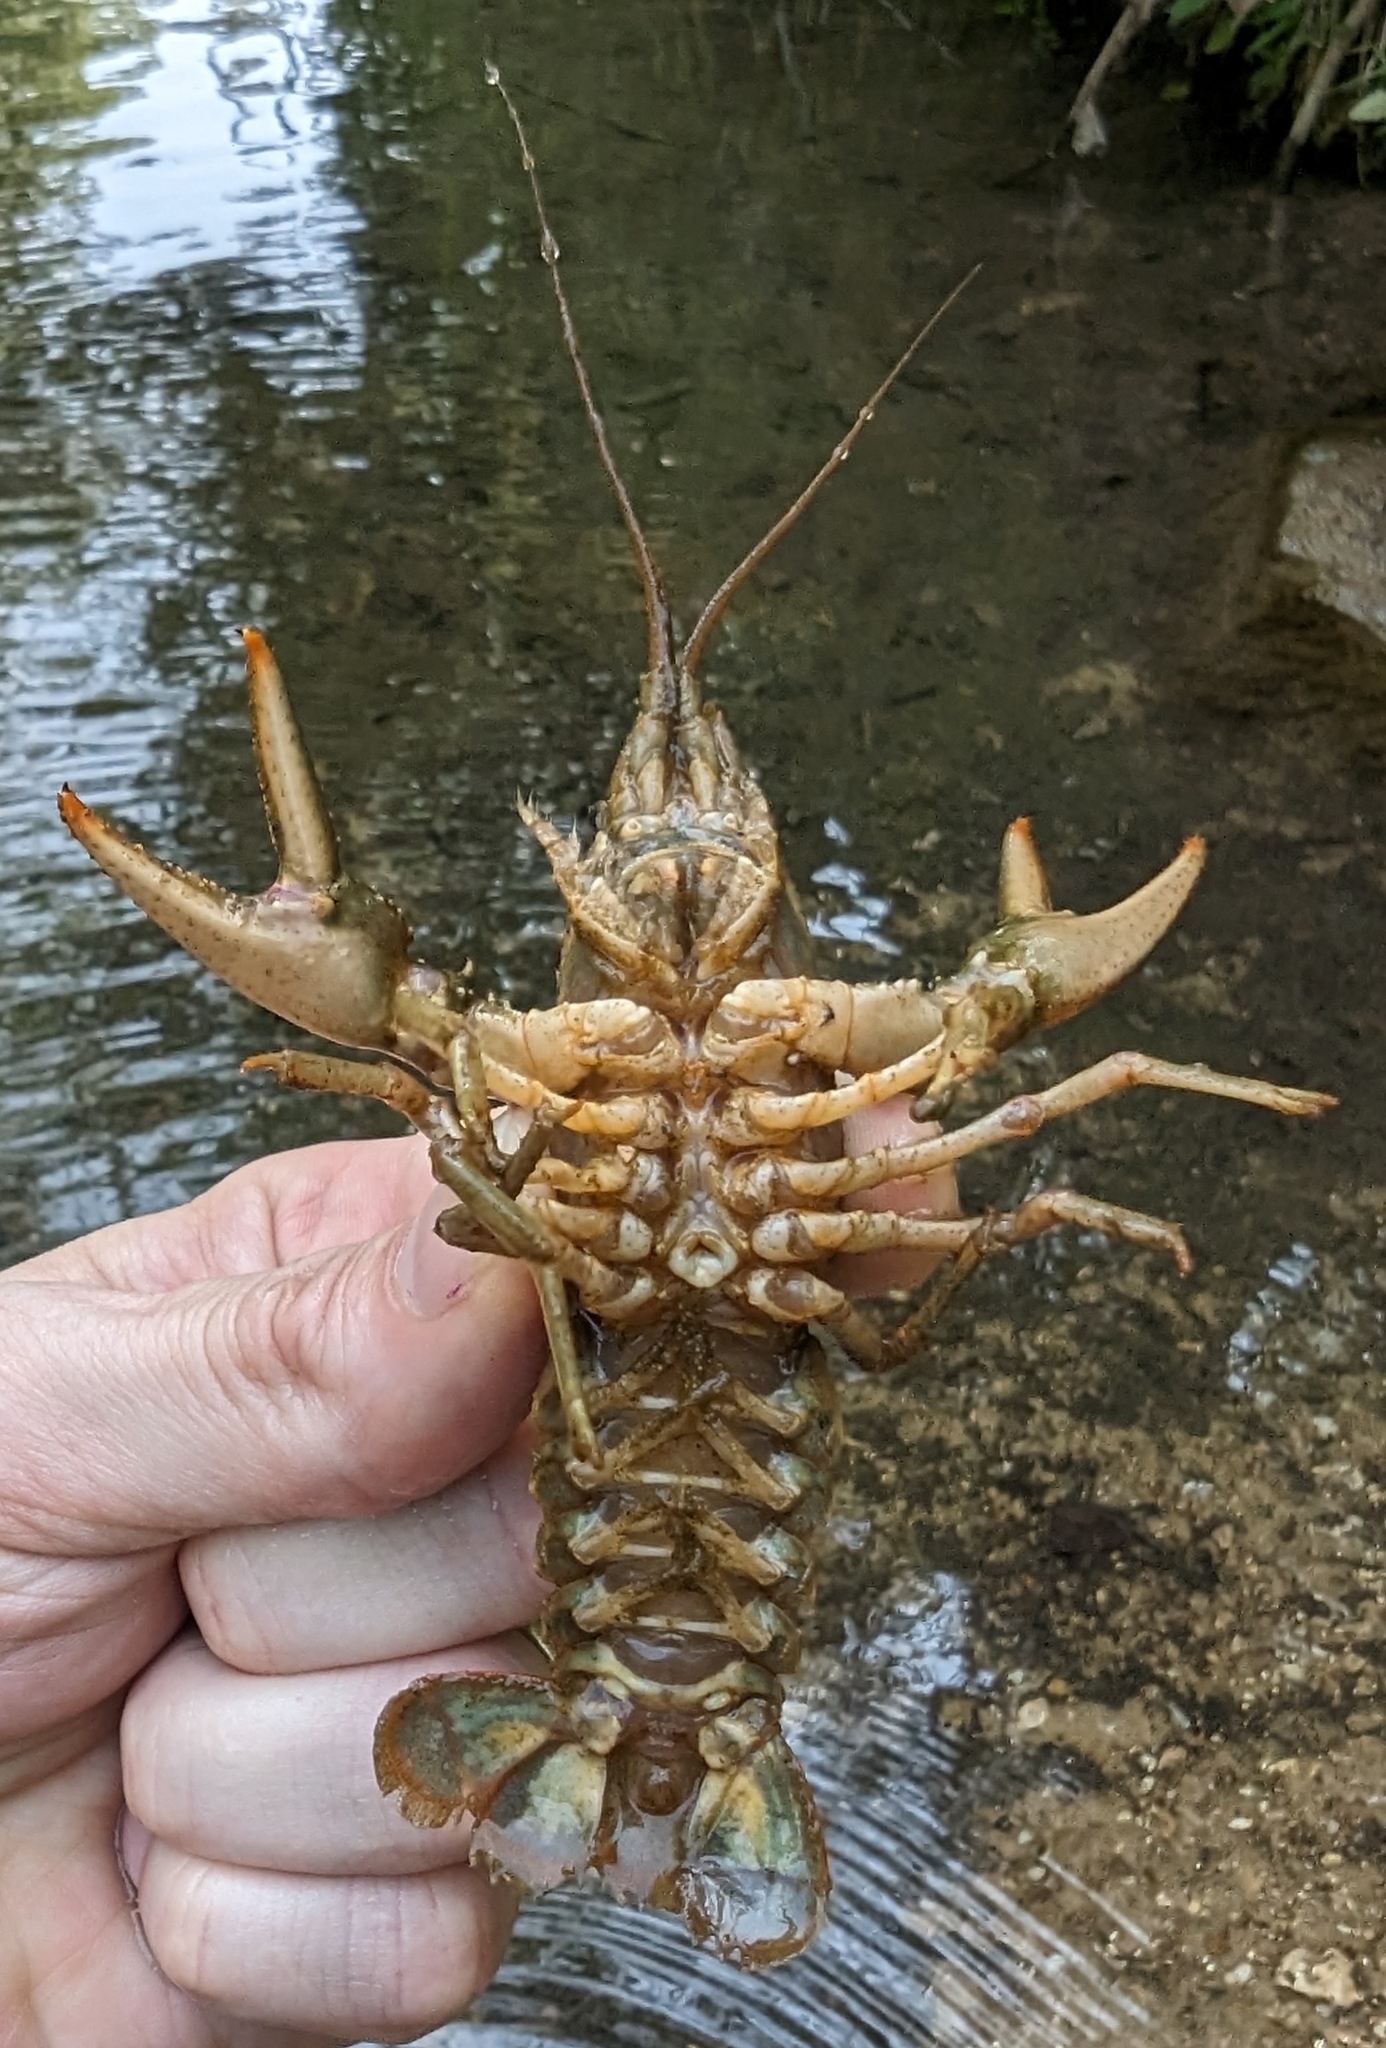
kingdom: Animalia
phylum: Arthropoda
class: Malacostraca
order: Decapoda
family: Cambaridae
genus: Faxonius
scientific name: Faxonius punctimanus
